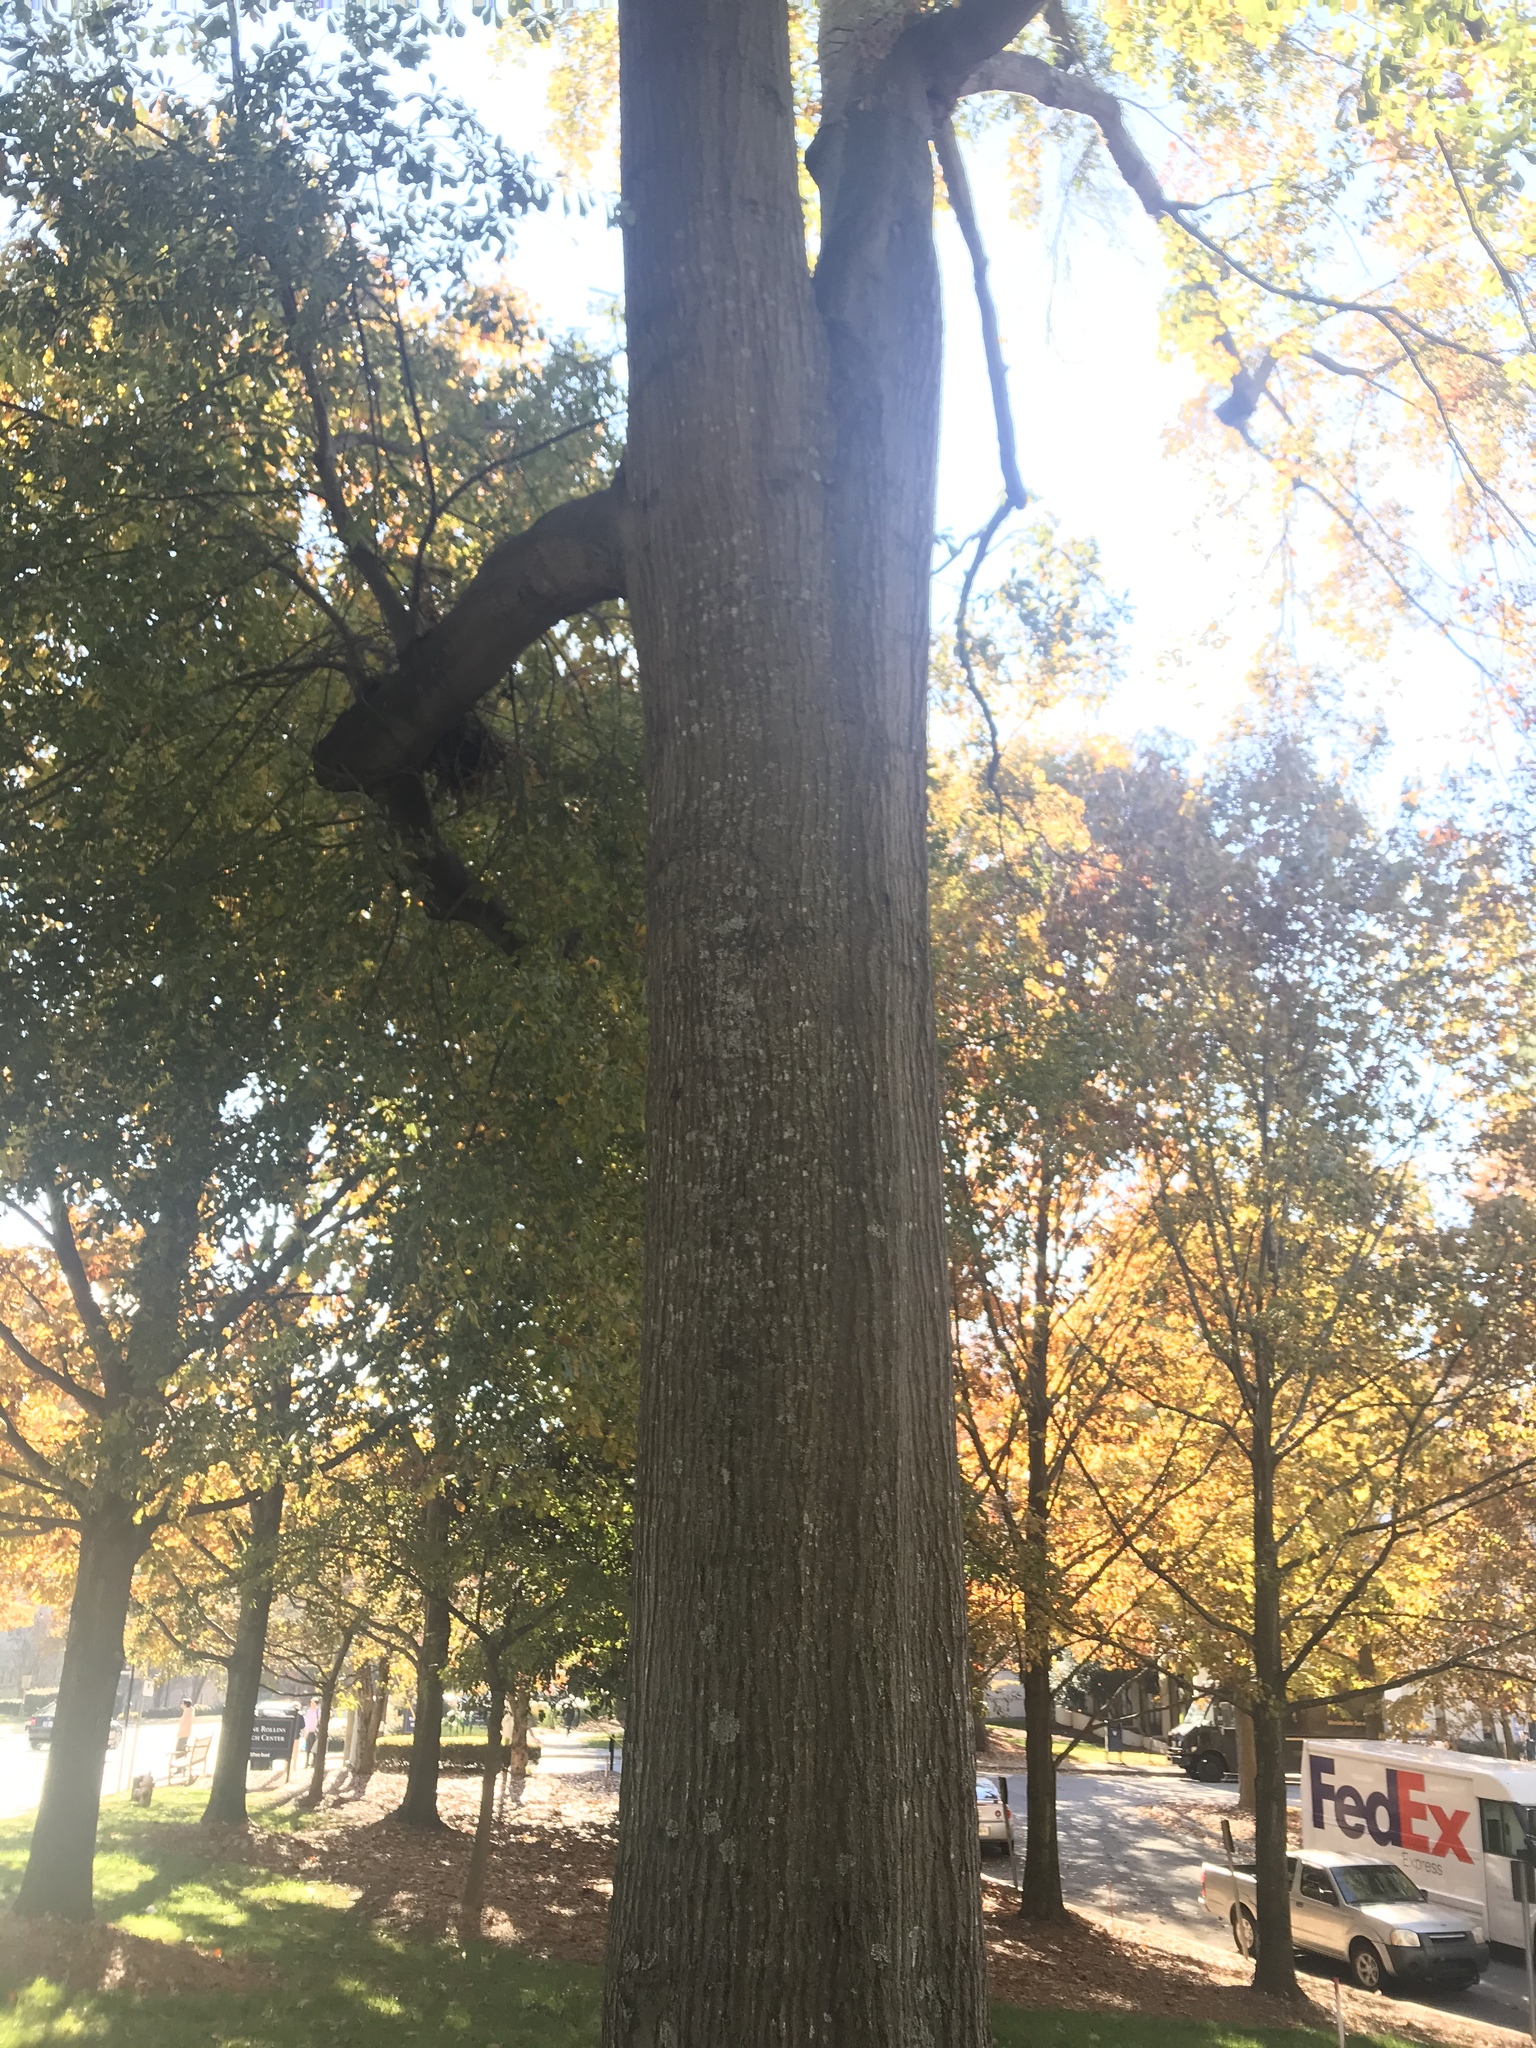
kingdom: Plantae
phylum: Tracheophyta
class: Magnoliopsida
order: Fagales
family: Fagaceae
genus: Quercus
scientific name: Quercus nigra
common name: Water oak
